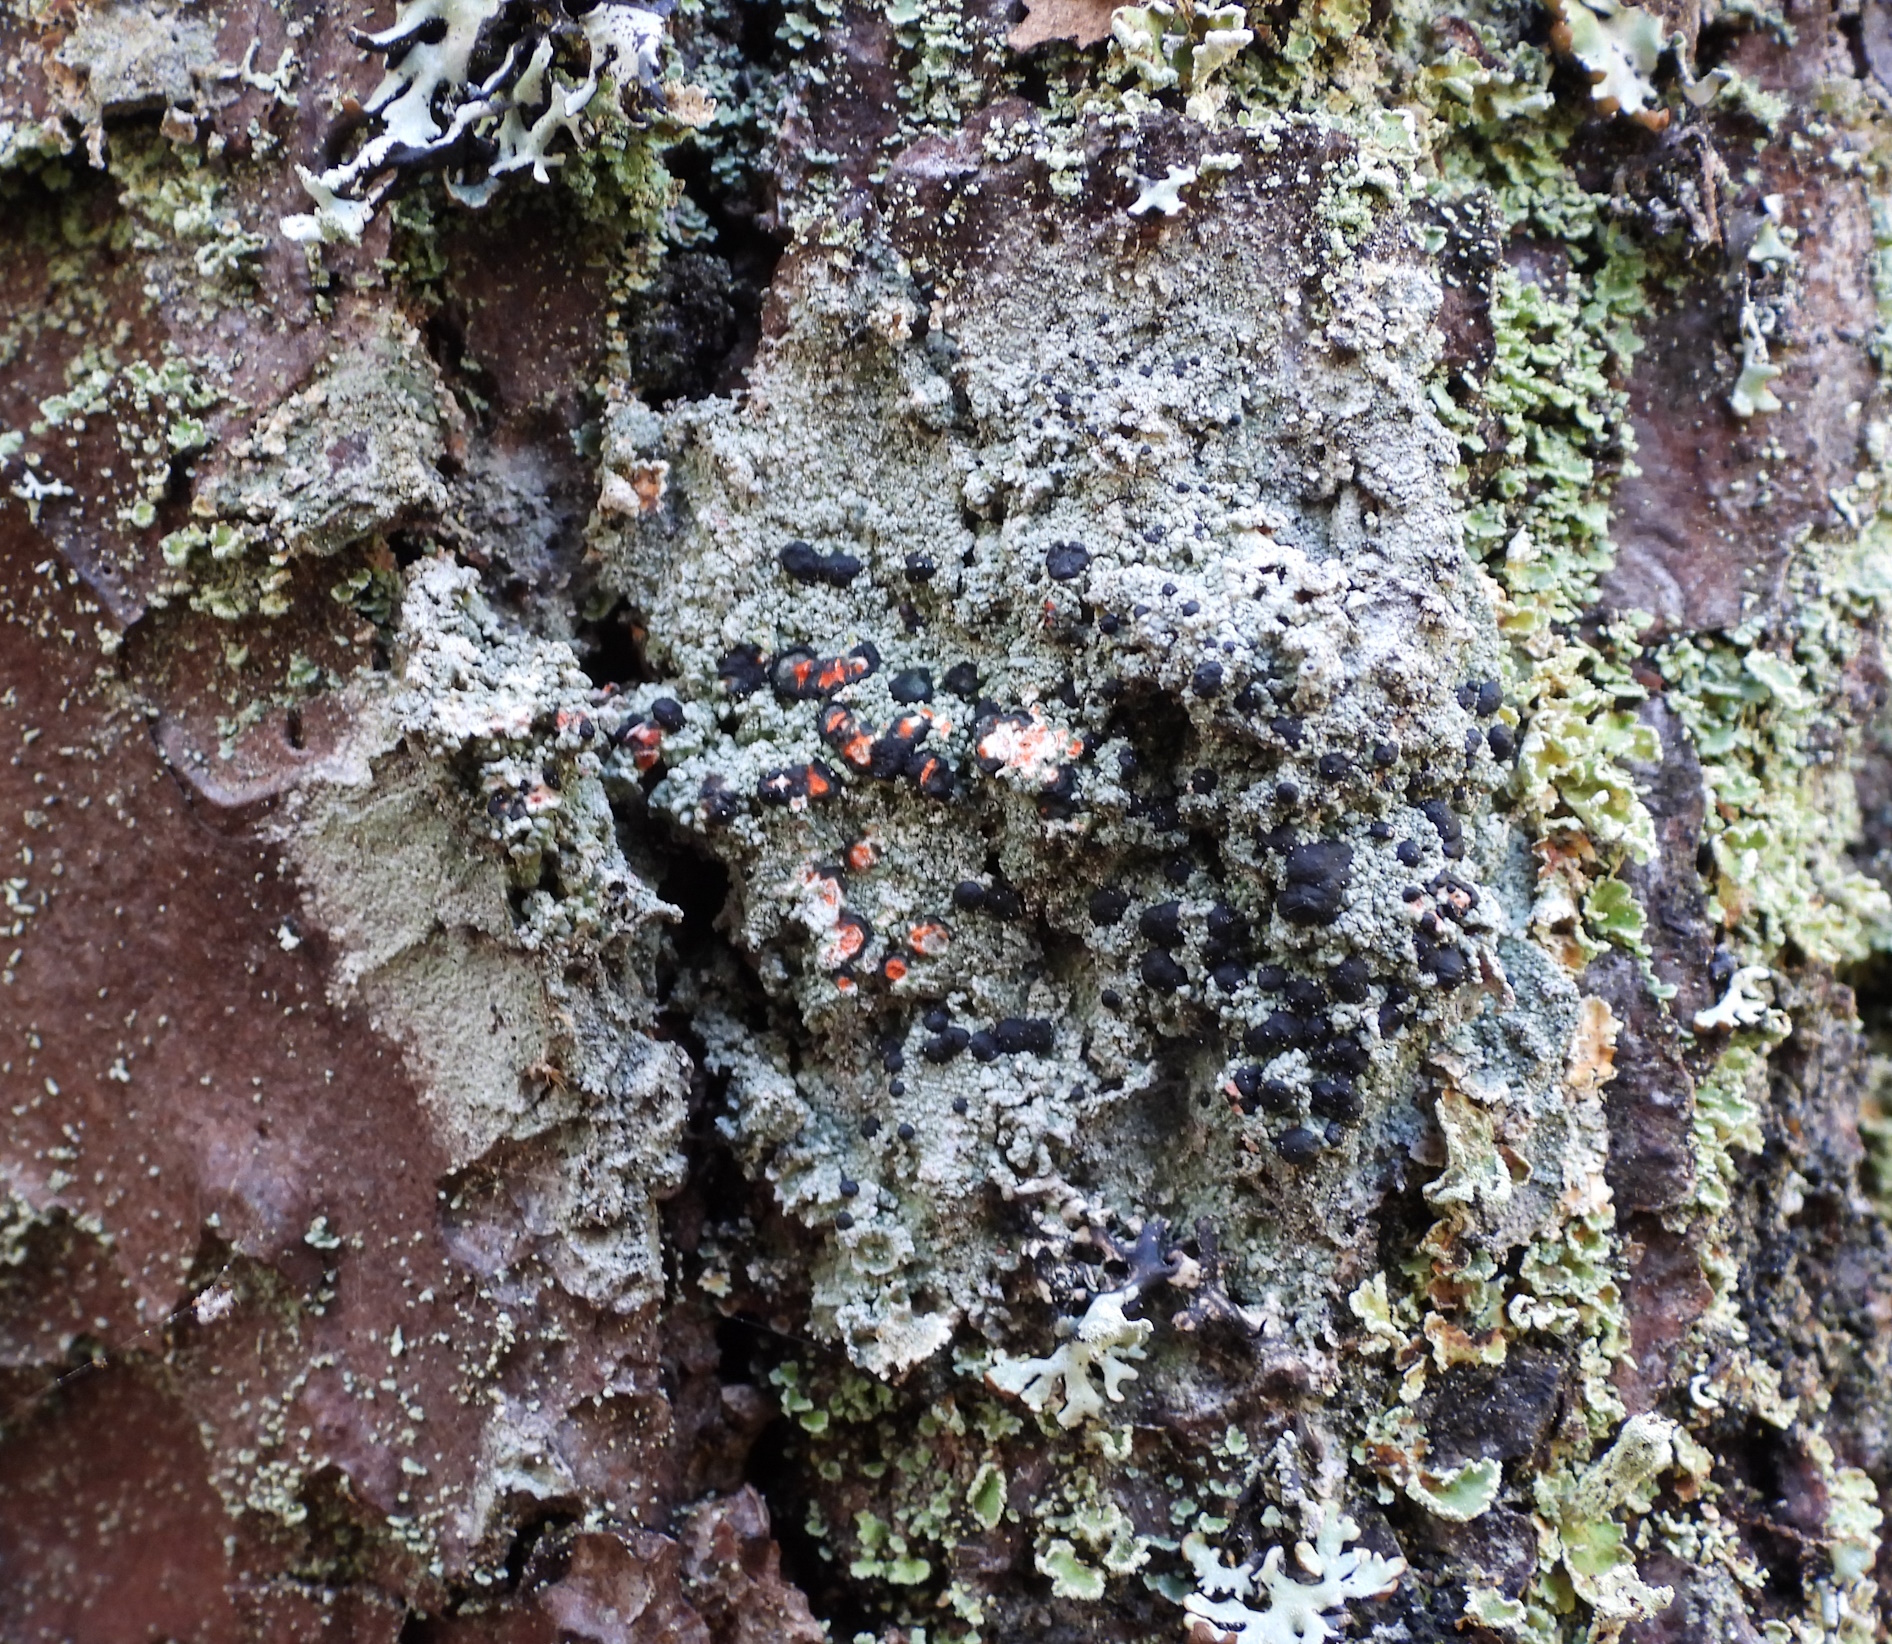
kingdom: Fungi
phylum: Ascomycota
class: Lecanoromycetes
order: Lecanorales
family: Tephromelataceae
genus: Mycoblastus
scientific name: Mycoblastus sanguinarius
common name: Bloody-heart lichen
